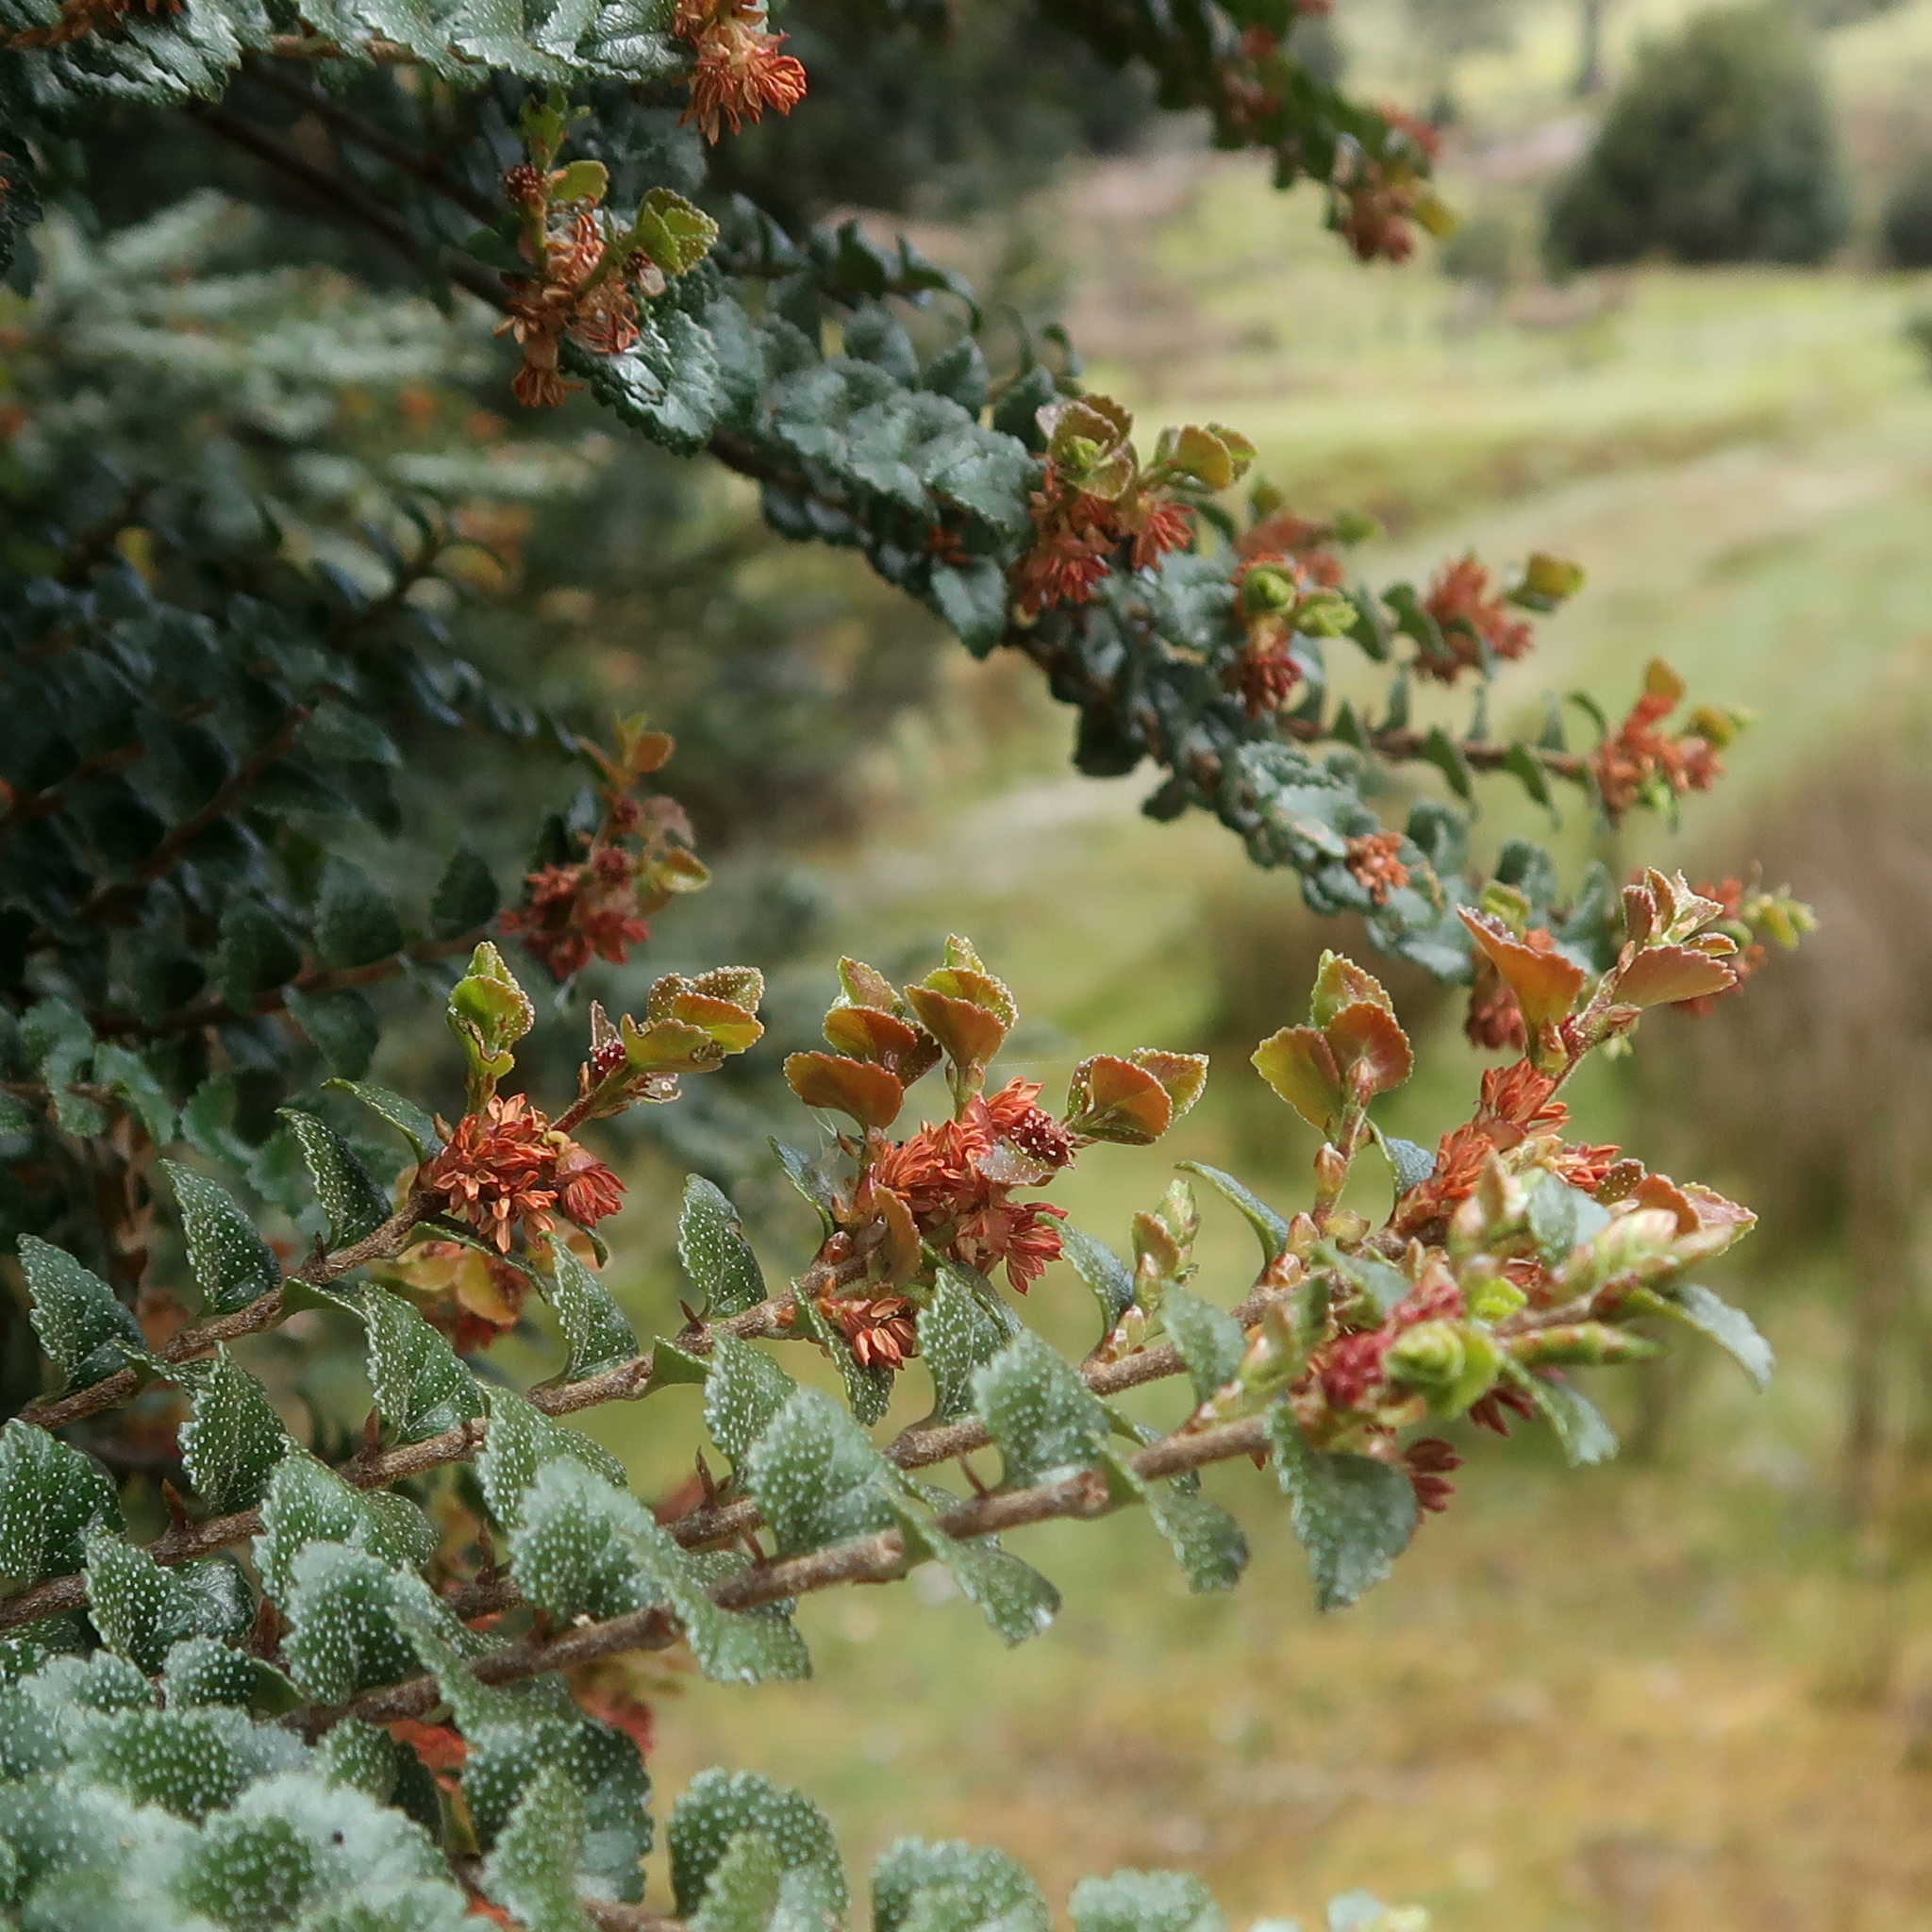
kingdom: Plantae
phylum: Tracheophyta
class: Magnoliopsida
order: Fagales
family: Nothofagaceae
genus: Nothofagus
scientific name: Nothofagus cunninghamii
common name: Myrtle beech
